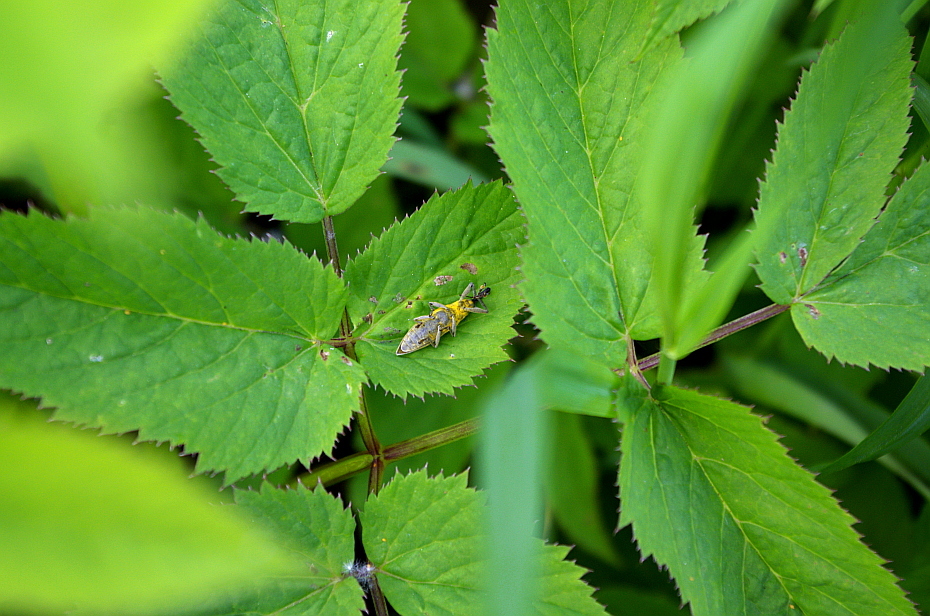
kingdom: Animalia
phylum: Arthropoda
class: Insecta
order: Coleoptera
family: Curculionidae
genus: Lixus
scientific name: Lixus iridis
